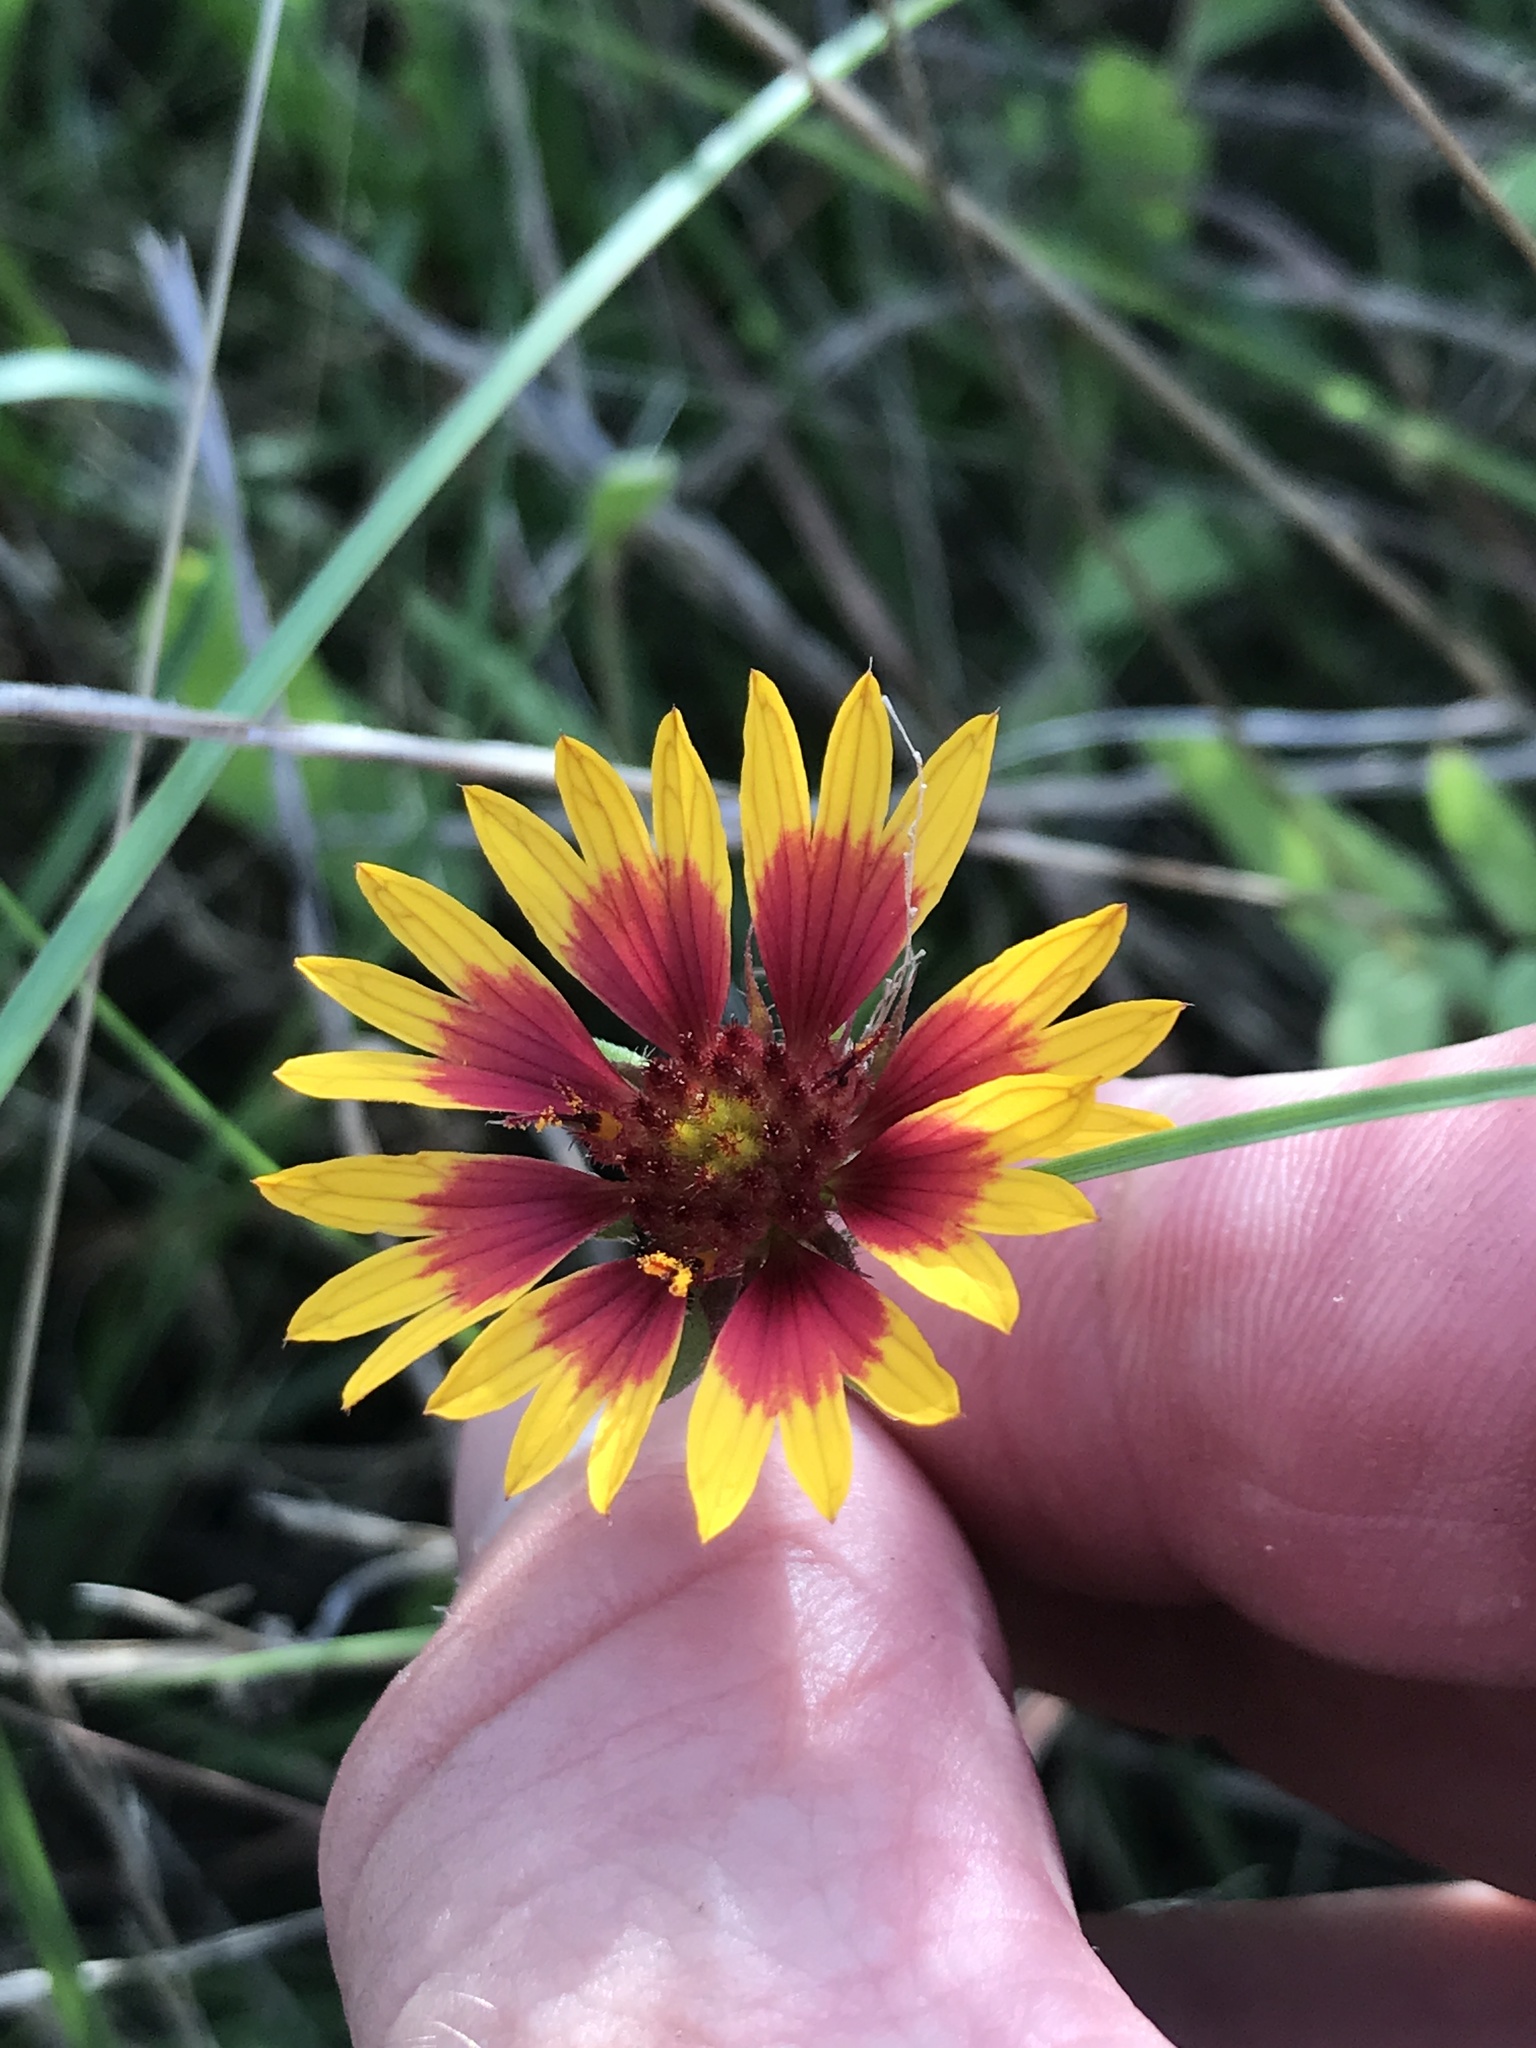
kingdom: Plantae
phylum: Tracheophyta
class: Magnoliopsida
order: Asterales
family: Asteraceae
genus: Gaillardia
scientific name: Gaillardia pulchella
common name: Firewheel
